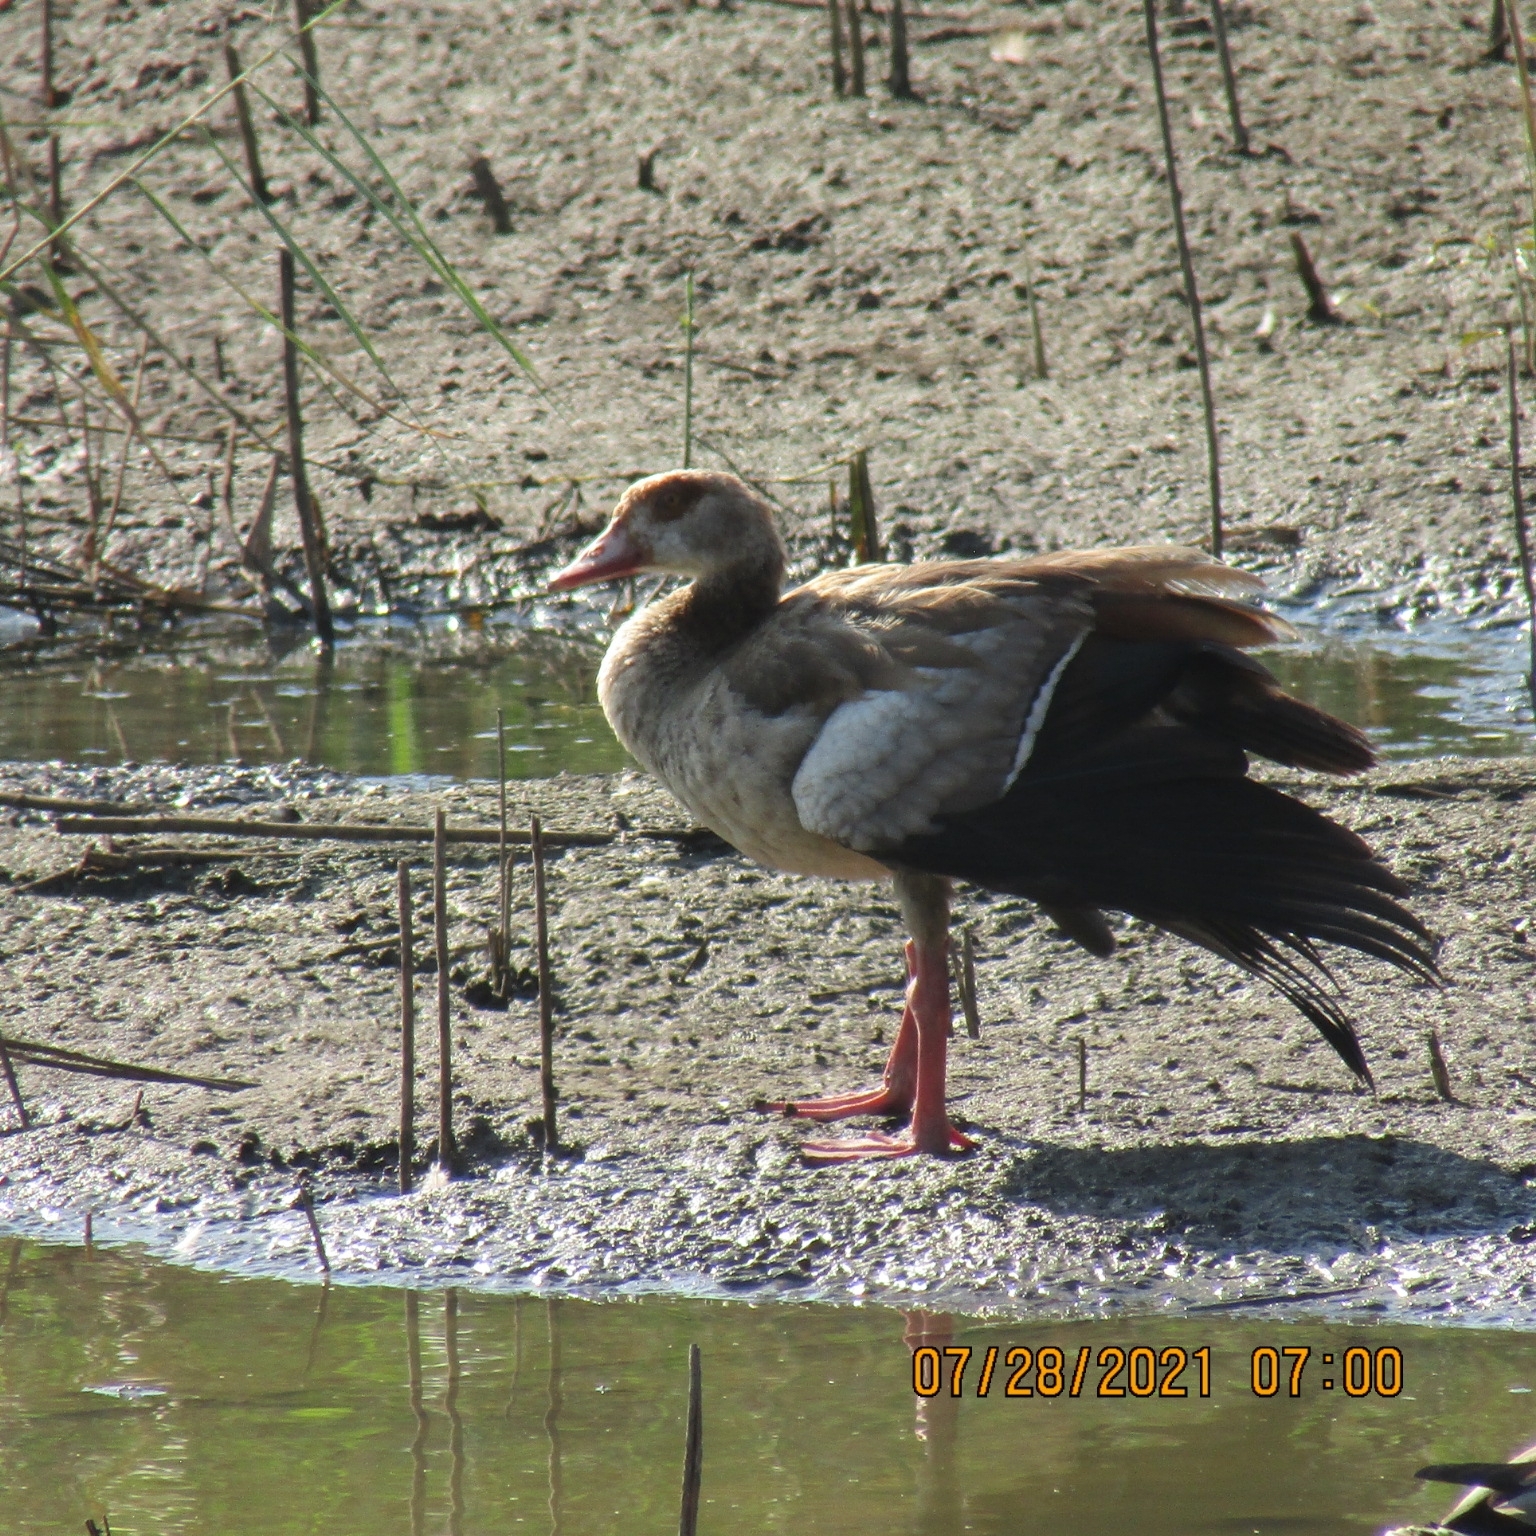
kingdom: Animalia
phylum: Chordata
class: Aves
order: Anseriformes
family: Anatidae
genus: Alopochen
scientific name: Alopochen aegyptiaca
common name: Egyptian goose
